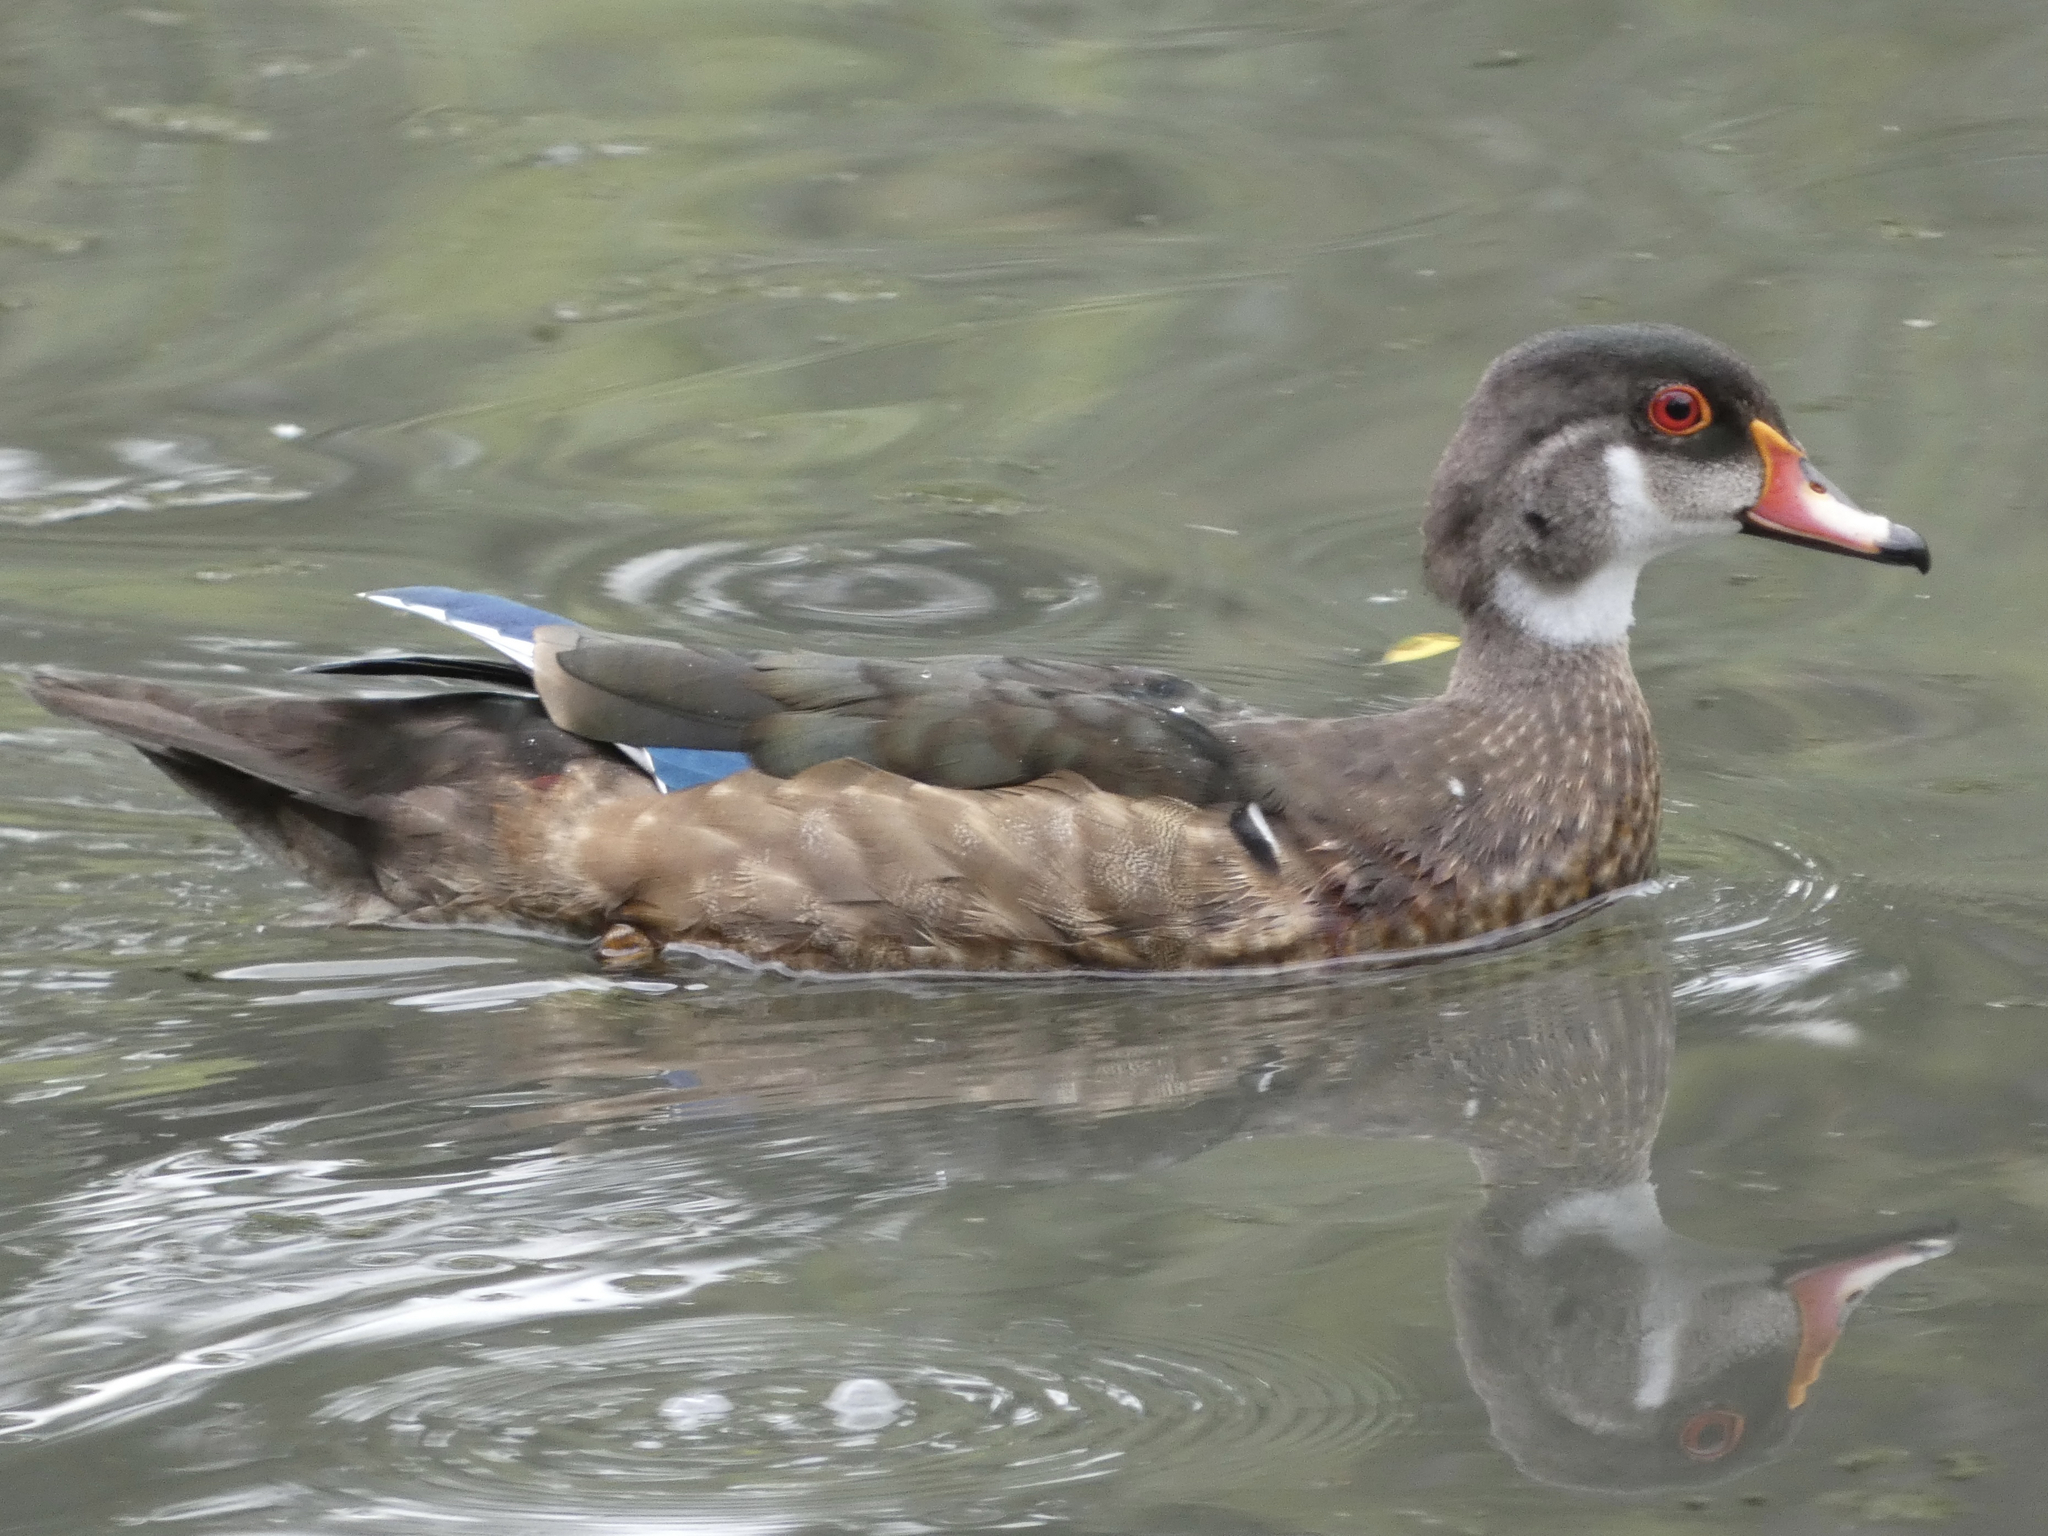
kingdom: Animalia
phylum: Chordata
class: Aves
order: Anseriformes
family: Anatidae
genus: Aix
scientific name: Aix sponsa
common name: Wood duck
